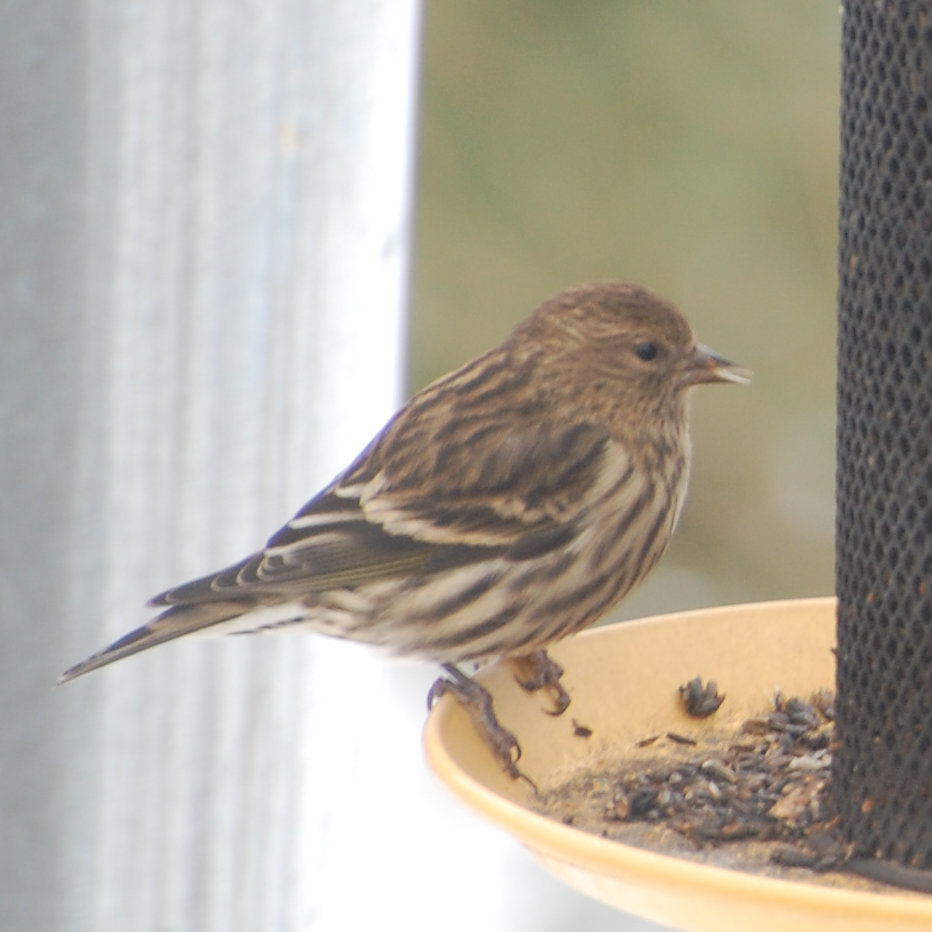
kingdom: Animalia
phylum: Chordata
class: Aves
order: Passeriformes
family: Fringillidae
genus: Spinus
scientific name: Spinus pinus
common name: Pine siskin
